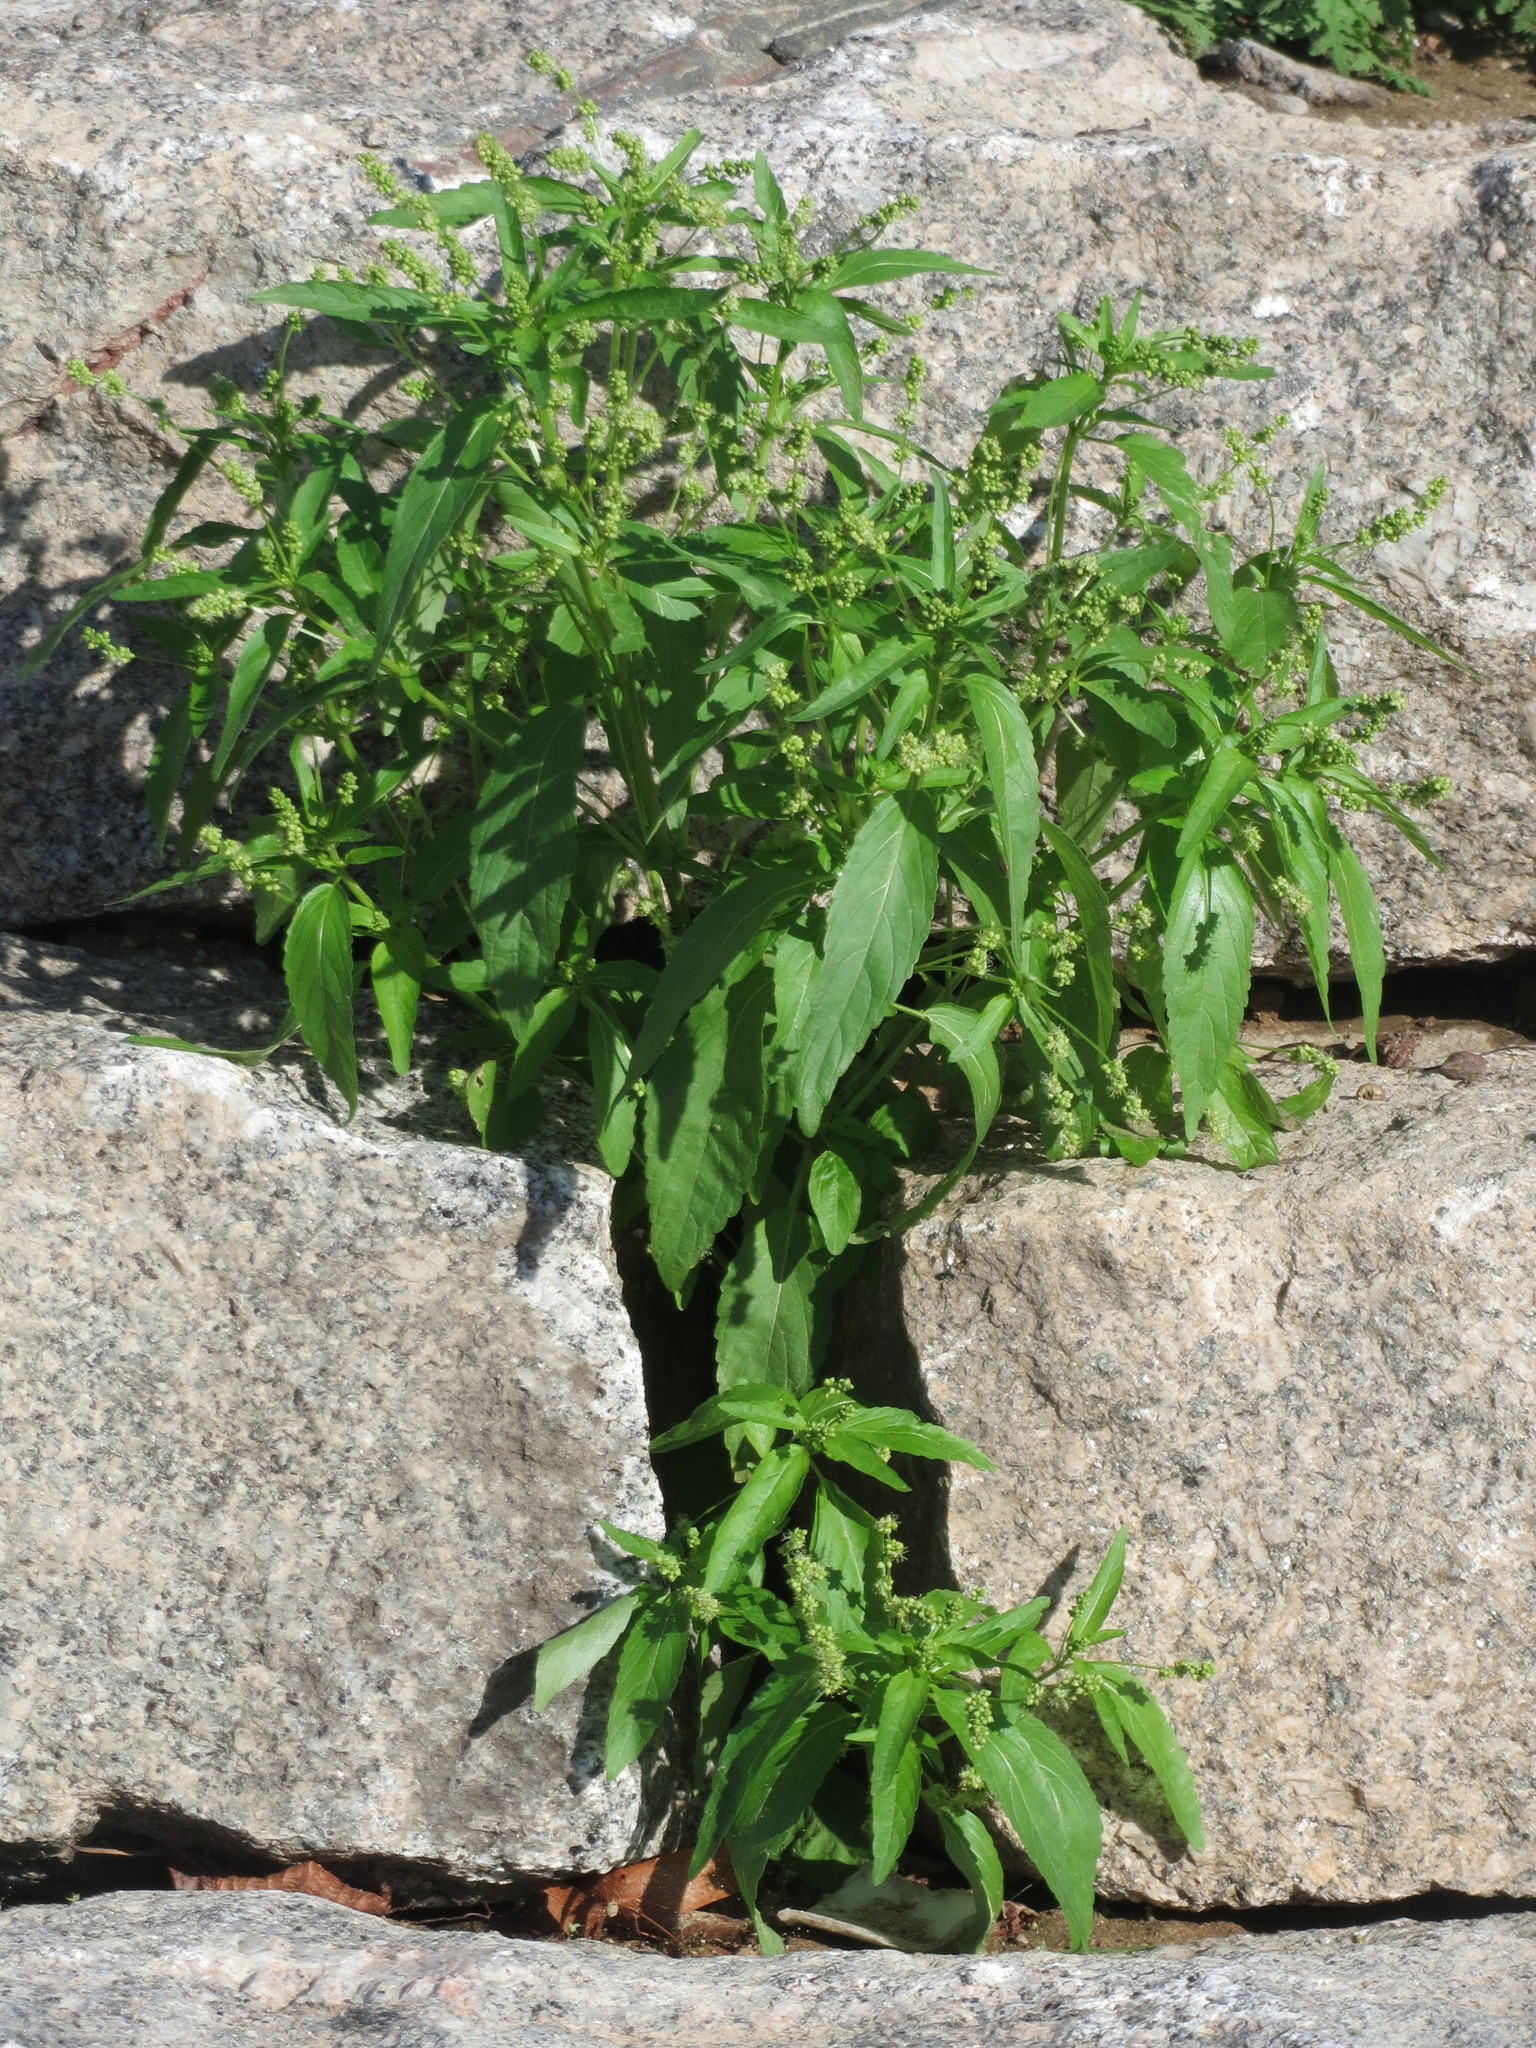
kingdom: Plantae
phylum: Tracheophyta
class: Magnoliopsida
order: Malpighiales
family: Euphorbiaceae
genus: Mercurialis
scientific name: Mercurialis annua
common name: Annual mercury
